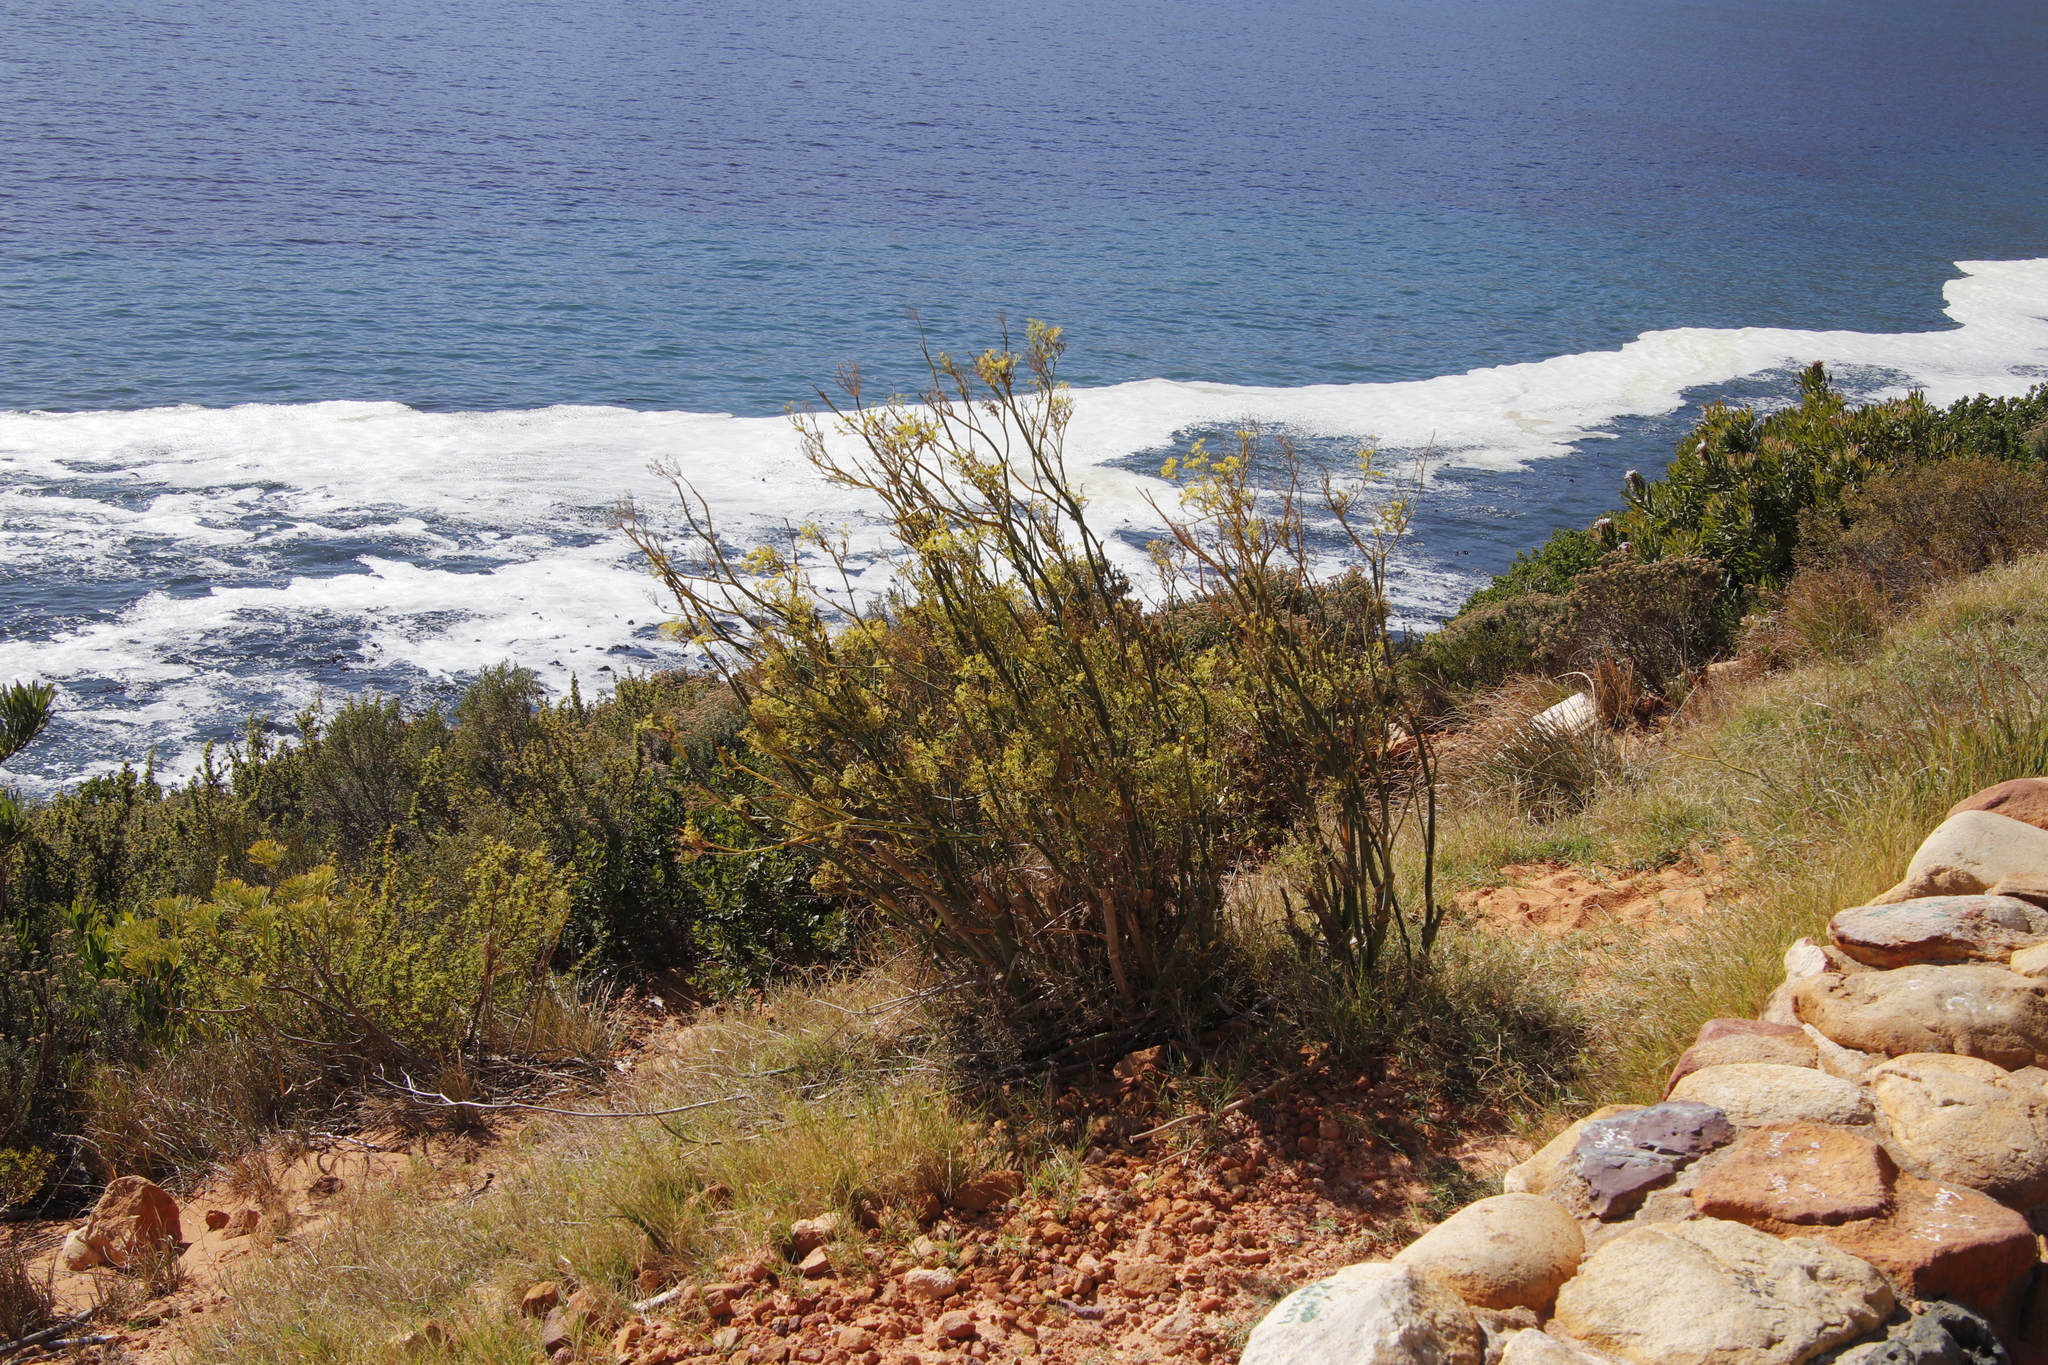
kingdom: Plantae
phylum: Tracheophyta
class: Magnoliopsida
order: Apiales
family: Apiaceae
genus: Foeniculum
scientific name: Foeniculum vulgare
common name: Fennel
